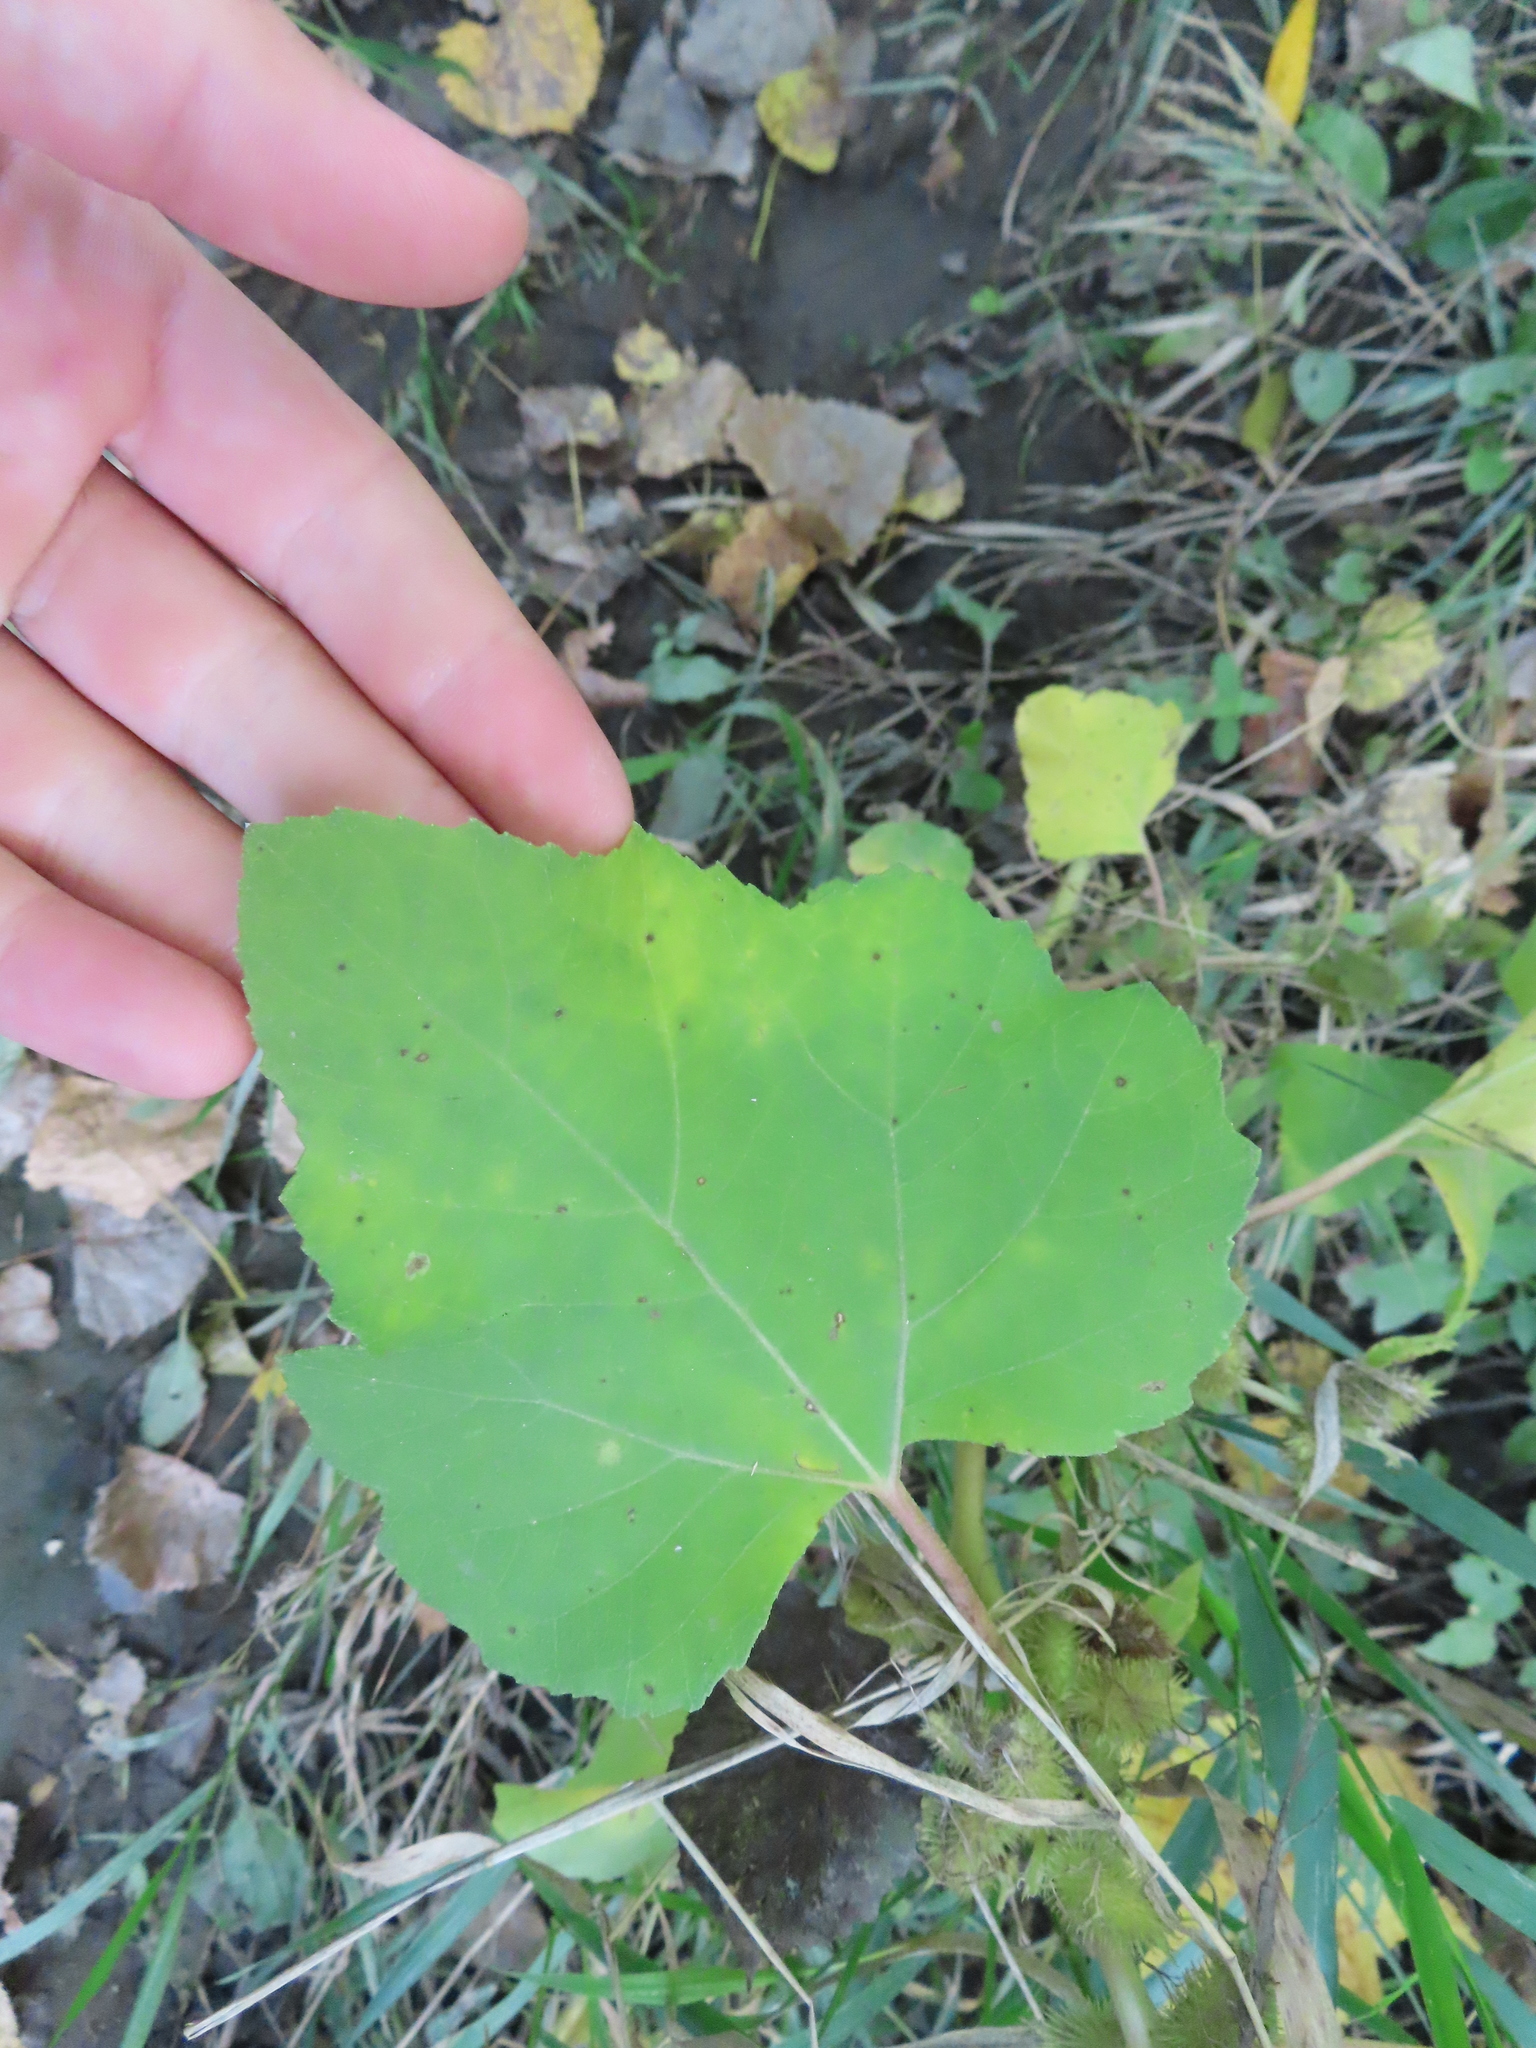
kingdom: Plantae
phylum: Tracheophyta
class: Magnoliopsida
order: Asterales
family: Asteraceae
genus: Xanthium
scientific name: Xanthium strumarium
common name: Rough cocklebur
